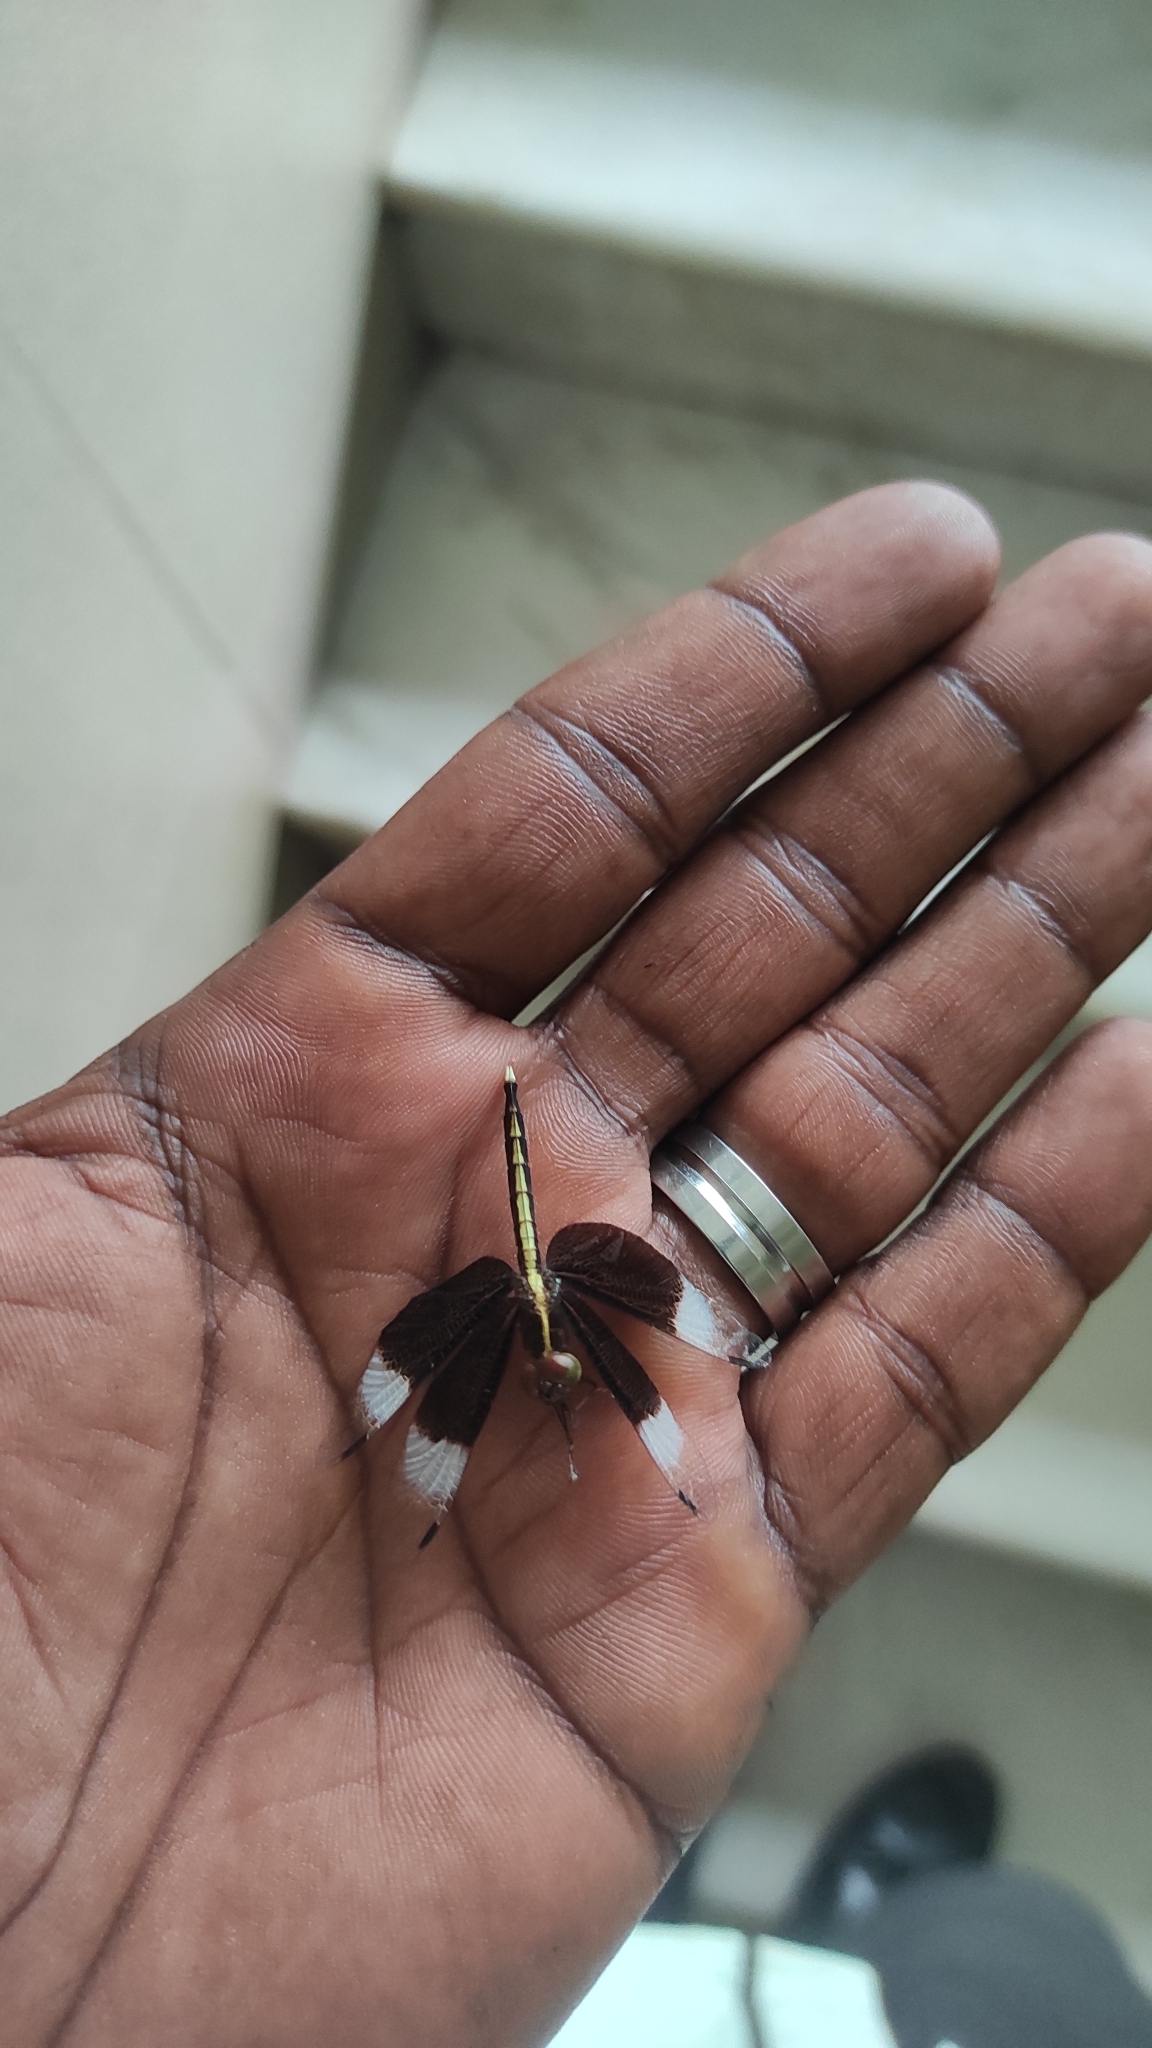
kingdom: Animalia
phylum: Arthropoda
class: Insecta
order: Odonata
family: Libellulidae
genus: Neurothemis
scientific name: Neurothemis tullia
